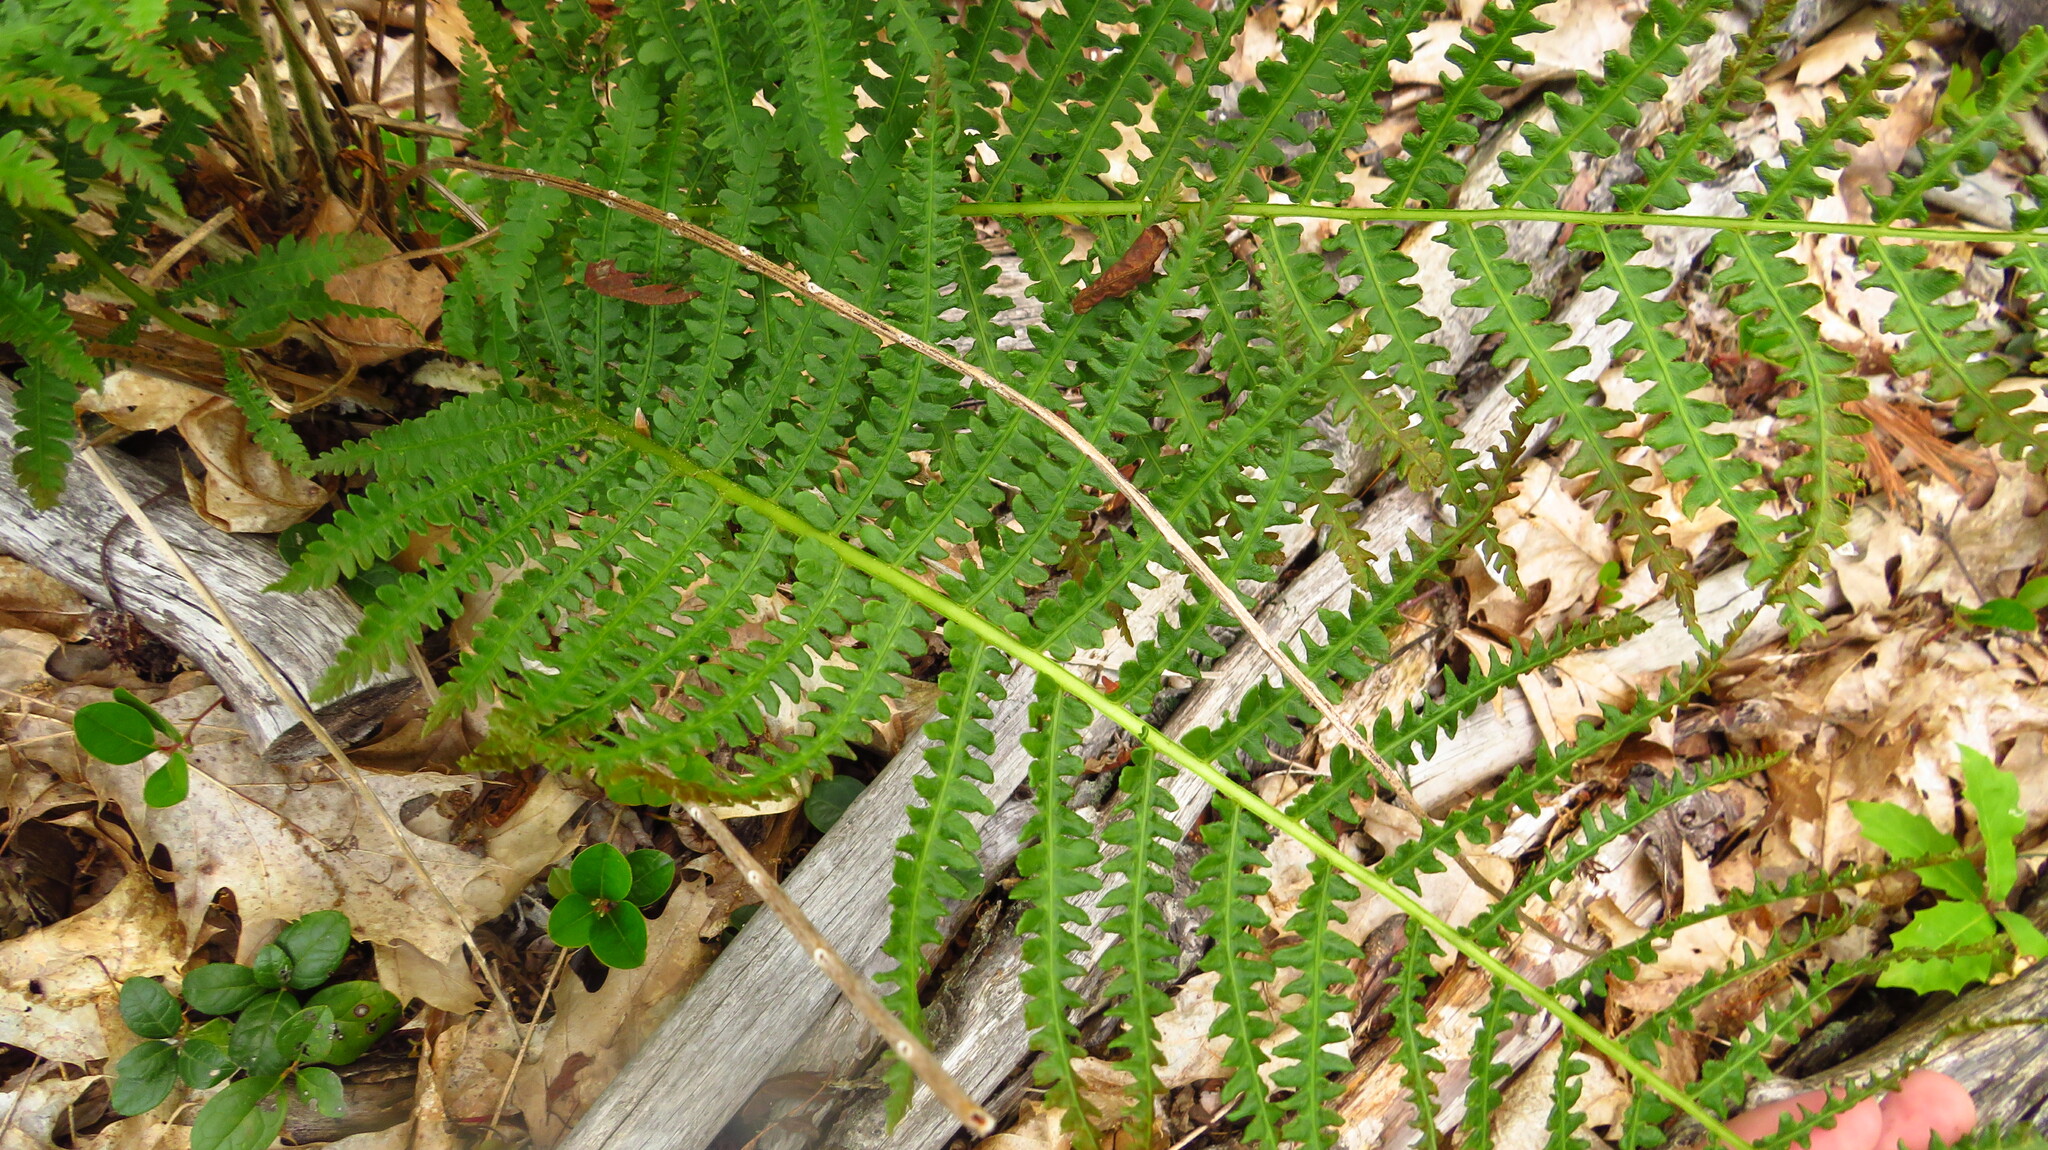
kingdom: Plantae
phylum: Tracheophyta
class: Polypodiopsida
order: Osmundales
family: Osmundaceae
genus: Osmundastrum
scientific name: Osmundastrum cinnamomeum
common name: Cinnamon fern
